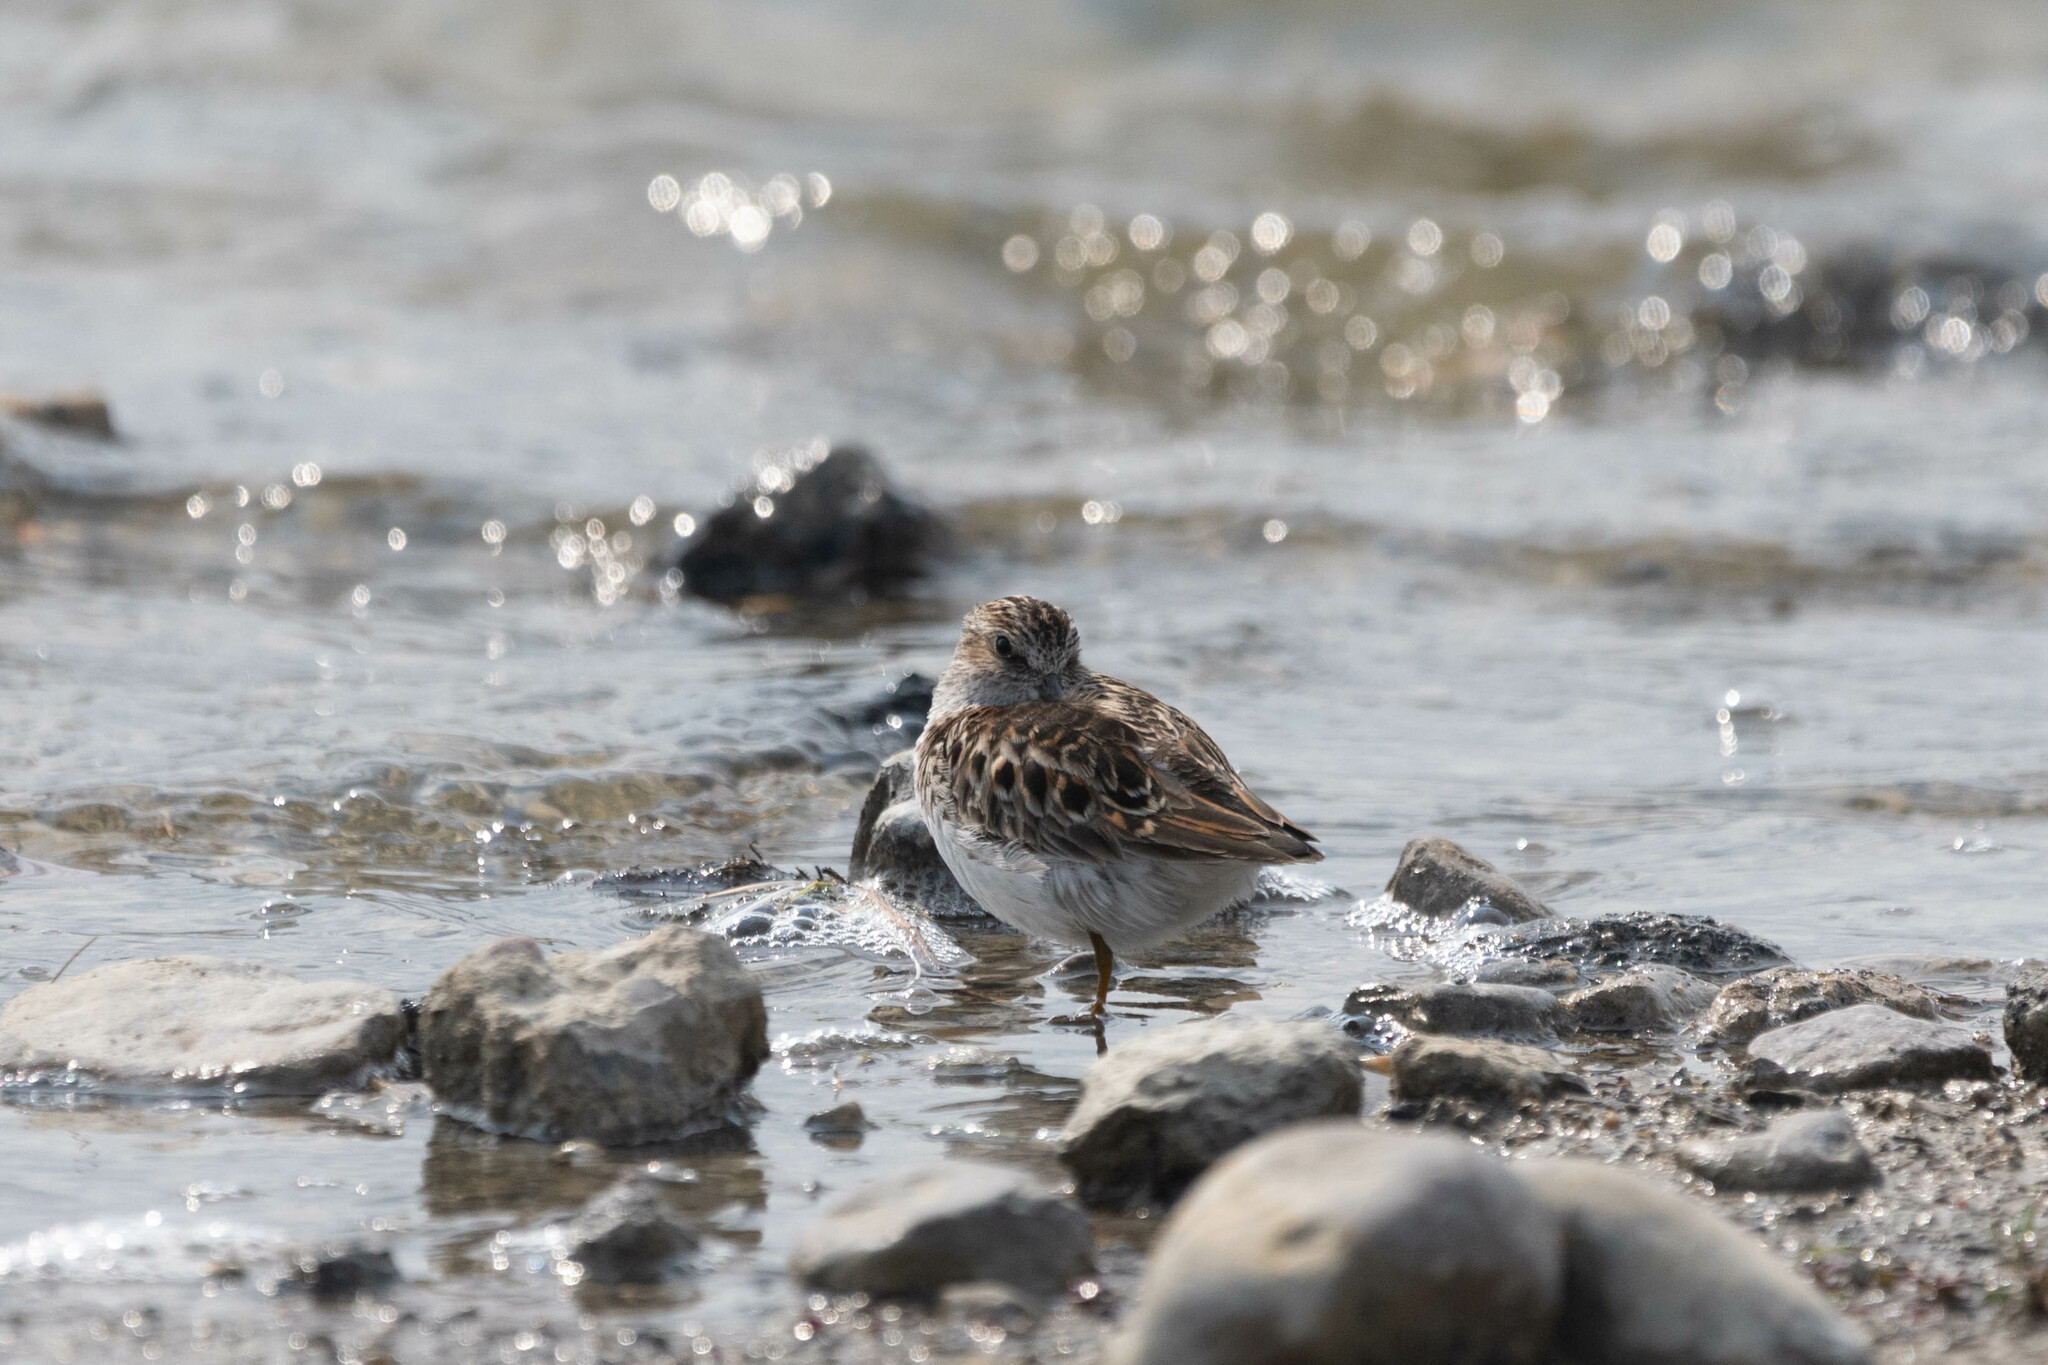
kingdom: Animalia
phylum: Chordata
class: Aves
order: Charadriiformes
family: Scolopacidae
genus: Calidris
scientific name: Calidris minutilla
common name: Least sandpiper
